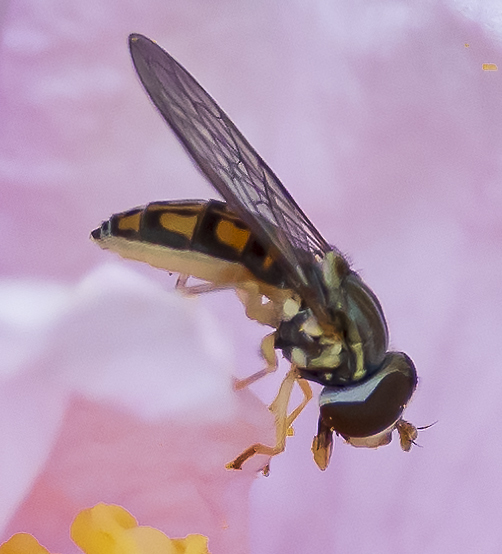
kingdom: Animalia
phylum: Arthropoda
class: Insecta
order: Diptera
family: Syrphidae
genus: Toxomerus
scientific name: Toxomerus marginatus
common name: Syrphid fly
